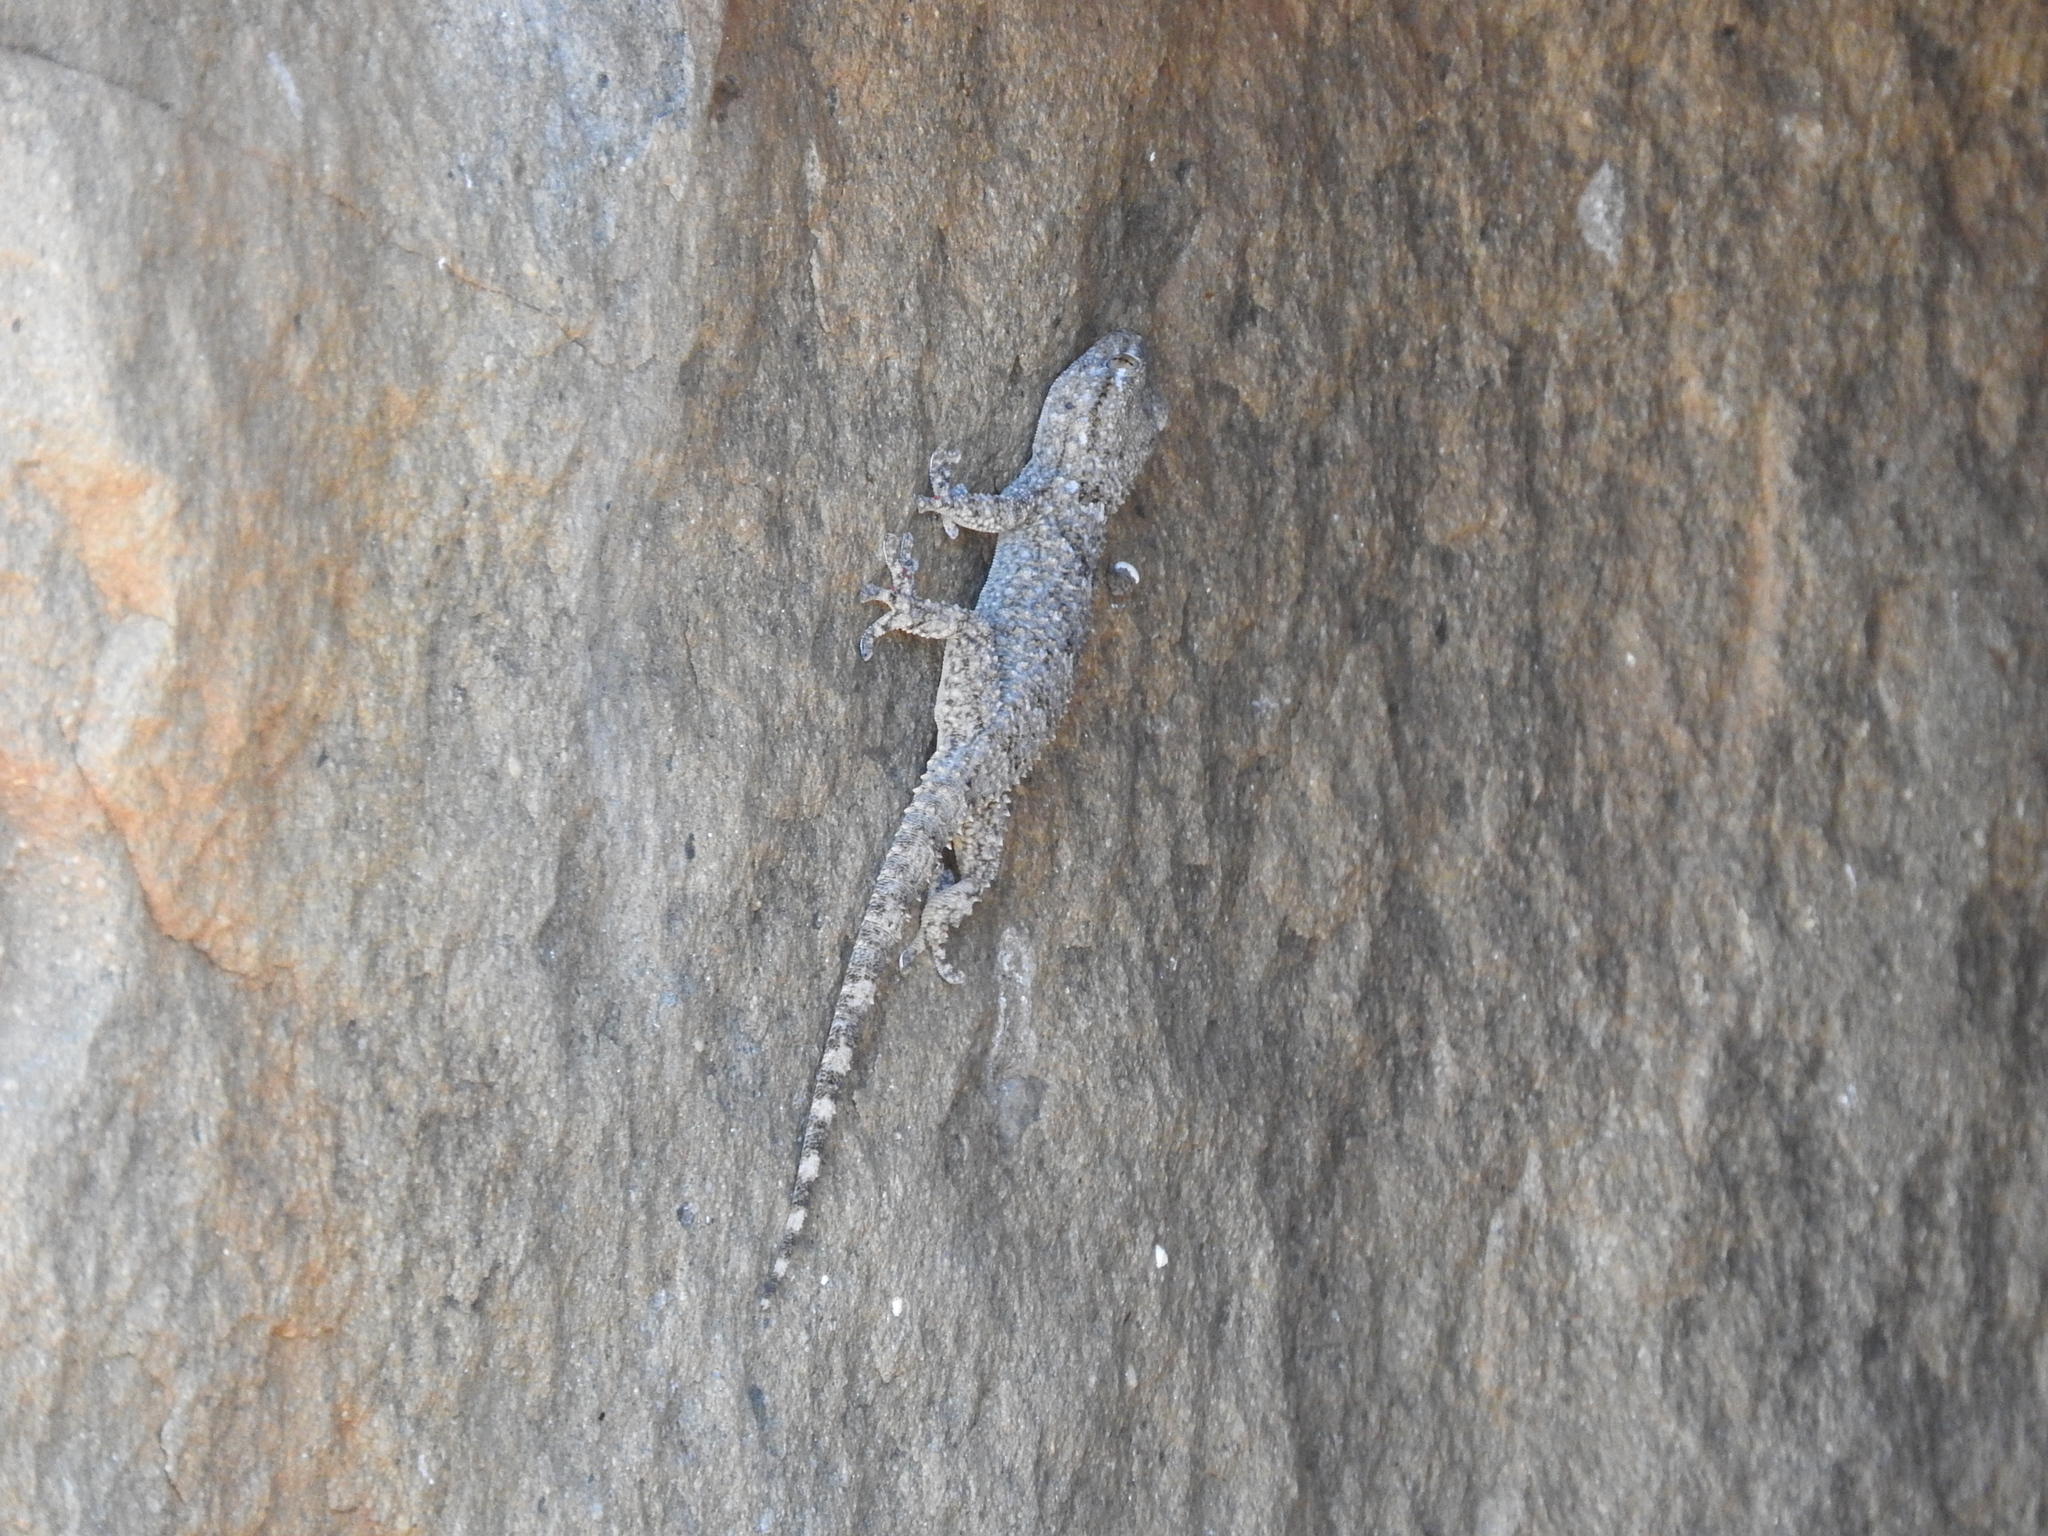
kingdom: Animalia
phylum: Chordata
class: Squamata
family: Phyllodactylidae
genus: Tarentola
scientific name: Tarentola mauritanica
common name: Moorish gecko
